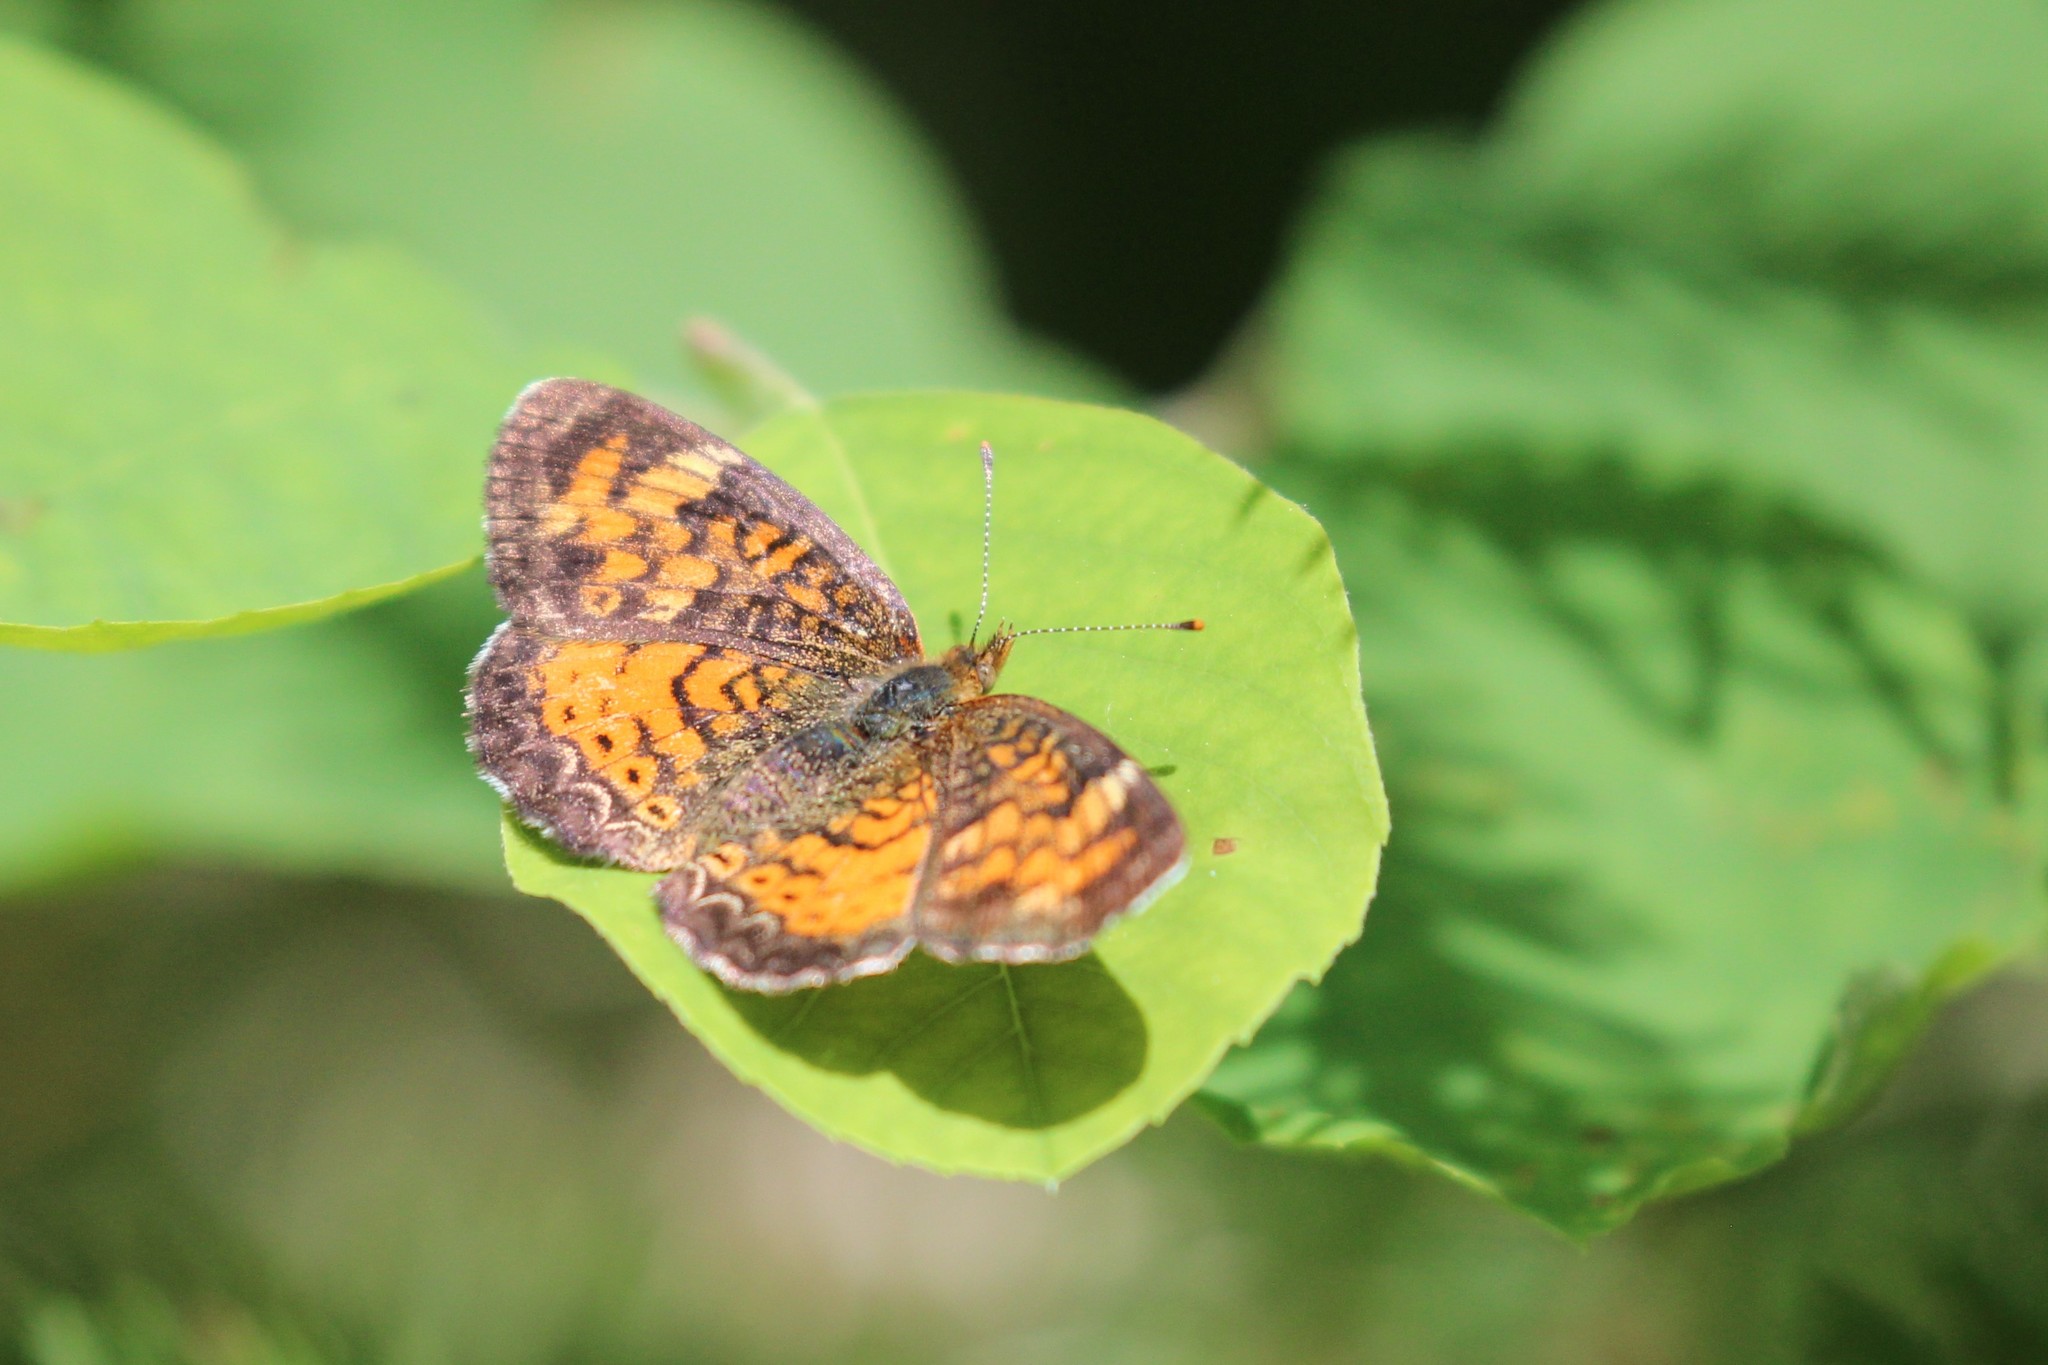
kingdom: Animalia
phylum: Arthropoda
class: Insecta
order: Lepidoptera
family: Nymphalidae
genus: Phyciodes
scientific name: Phyciodes tharos
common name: Pearl crescent
